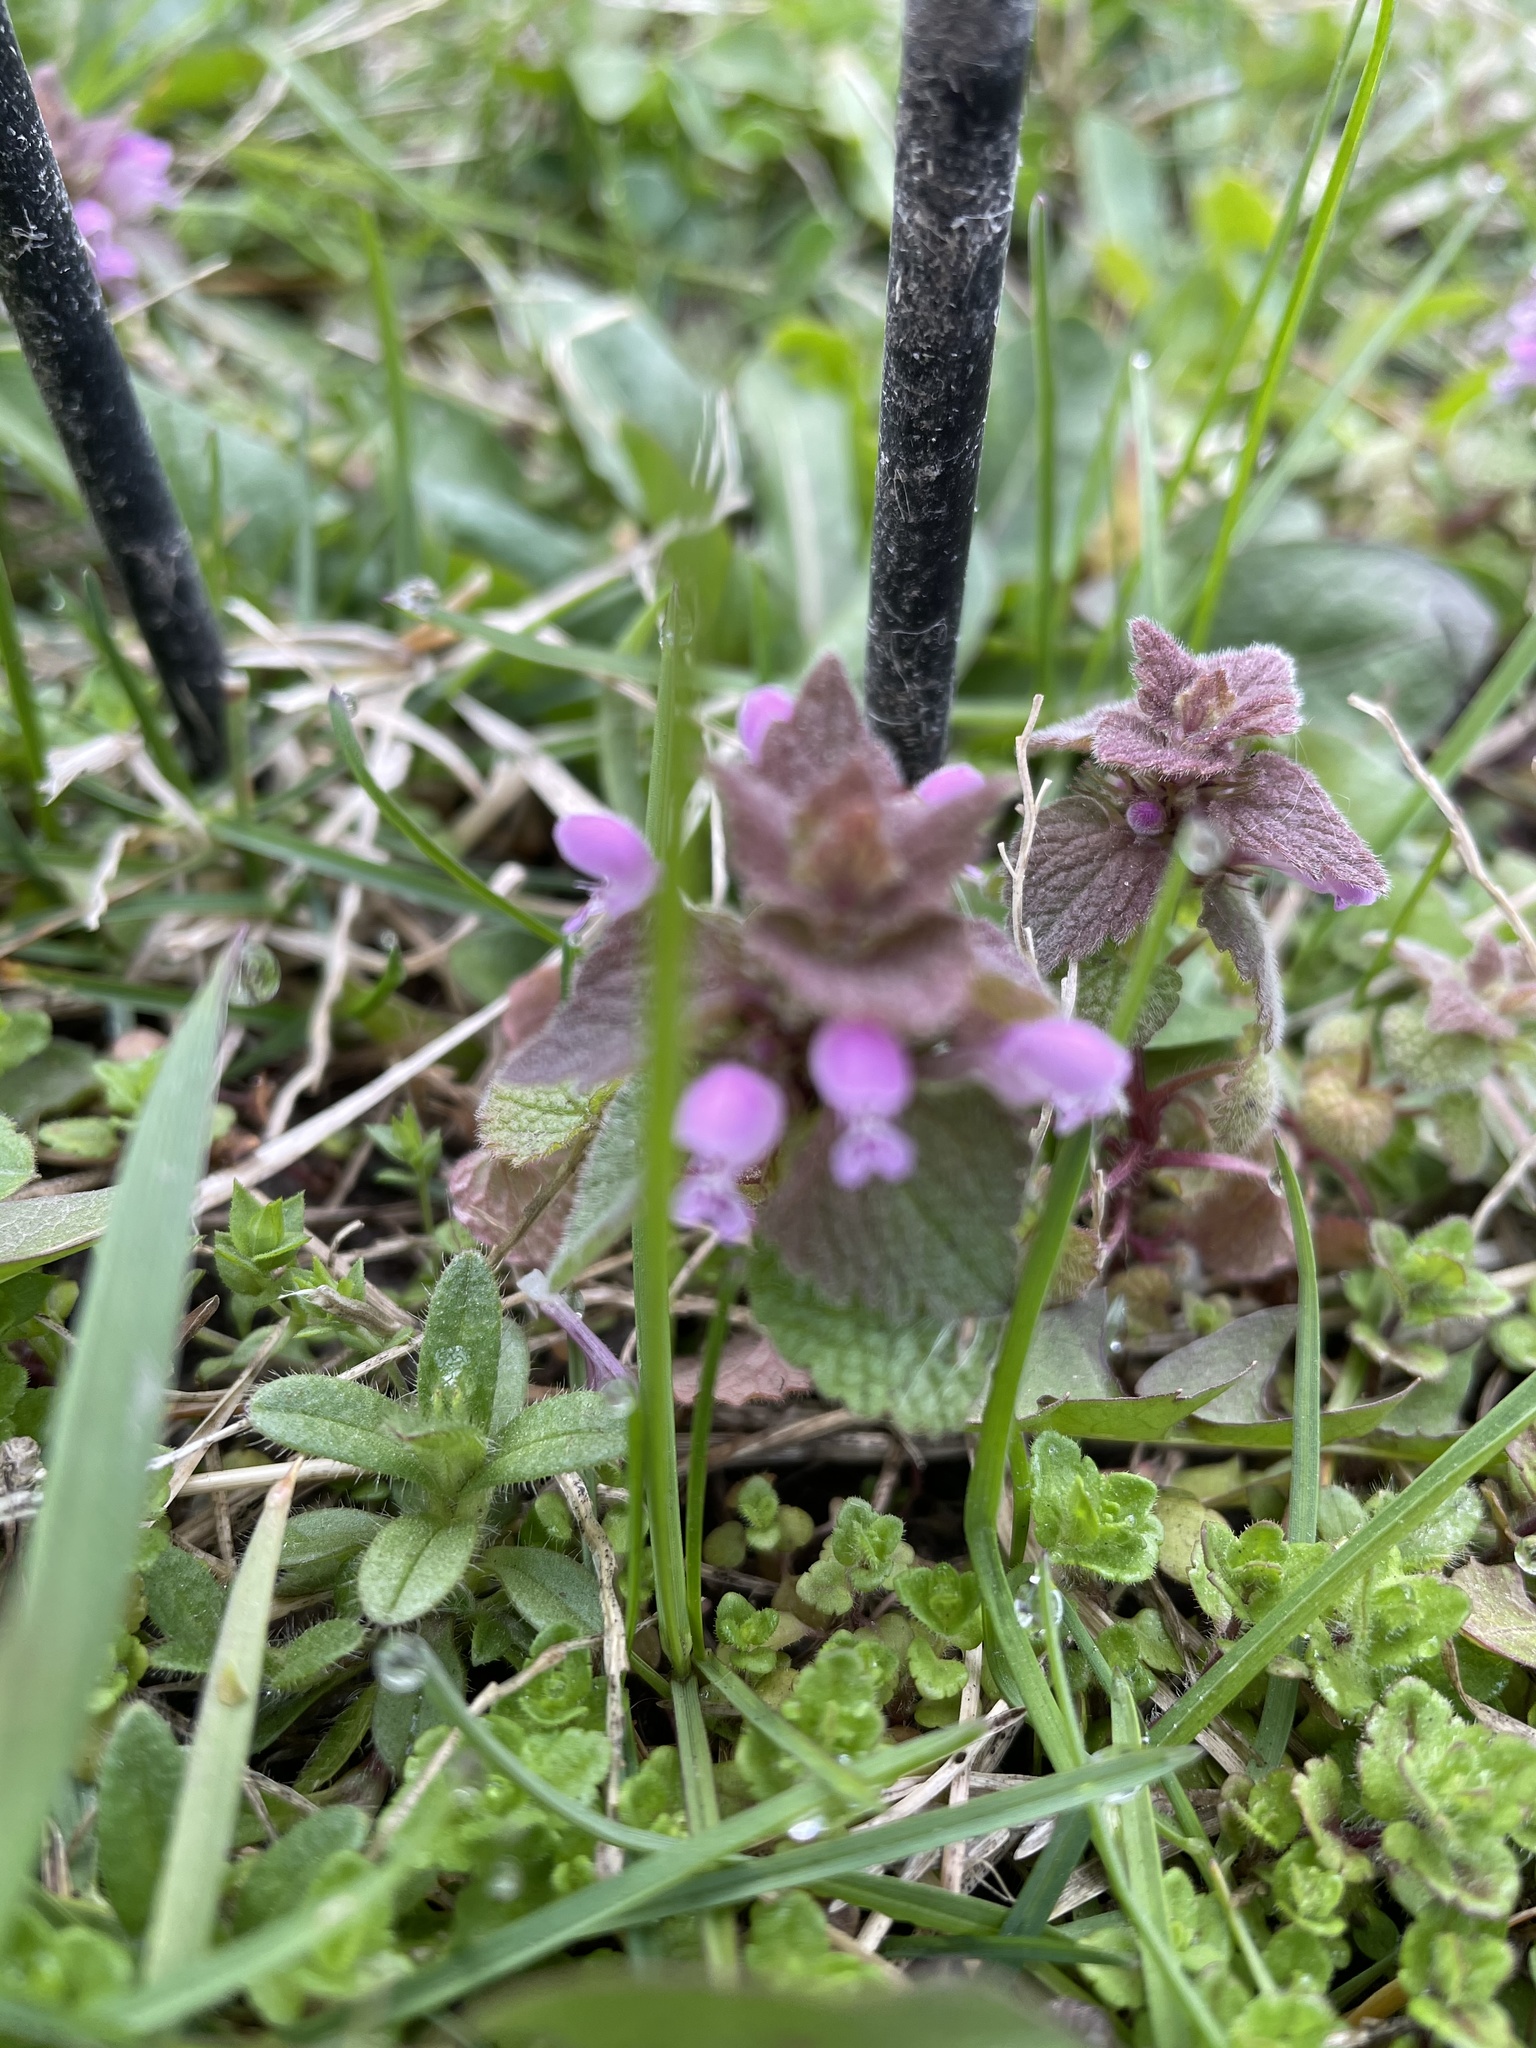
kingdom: Plantae
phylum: Tracheophyta
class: Magnoliopsida
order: Lamiales
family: Lamiaceae
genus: Lamium
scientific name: Lamium purpureum
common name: Red dead-nettle
